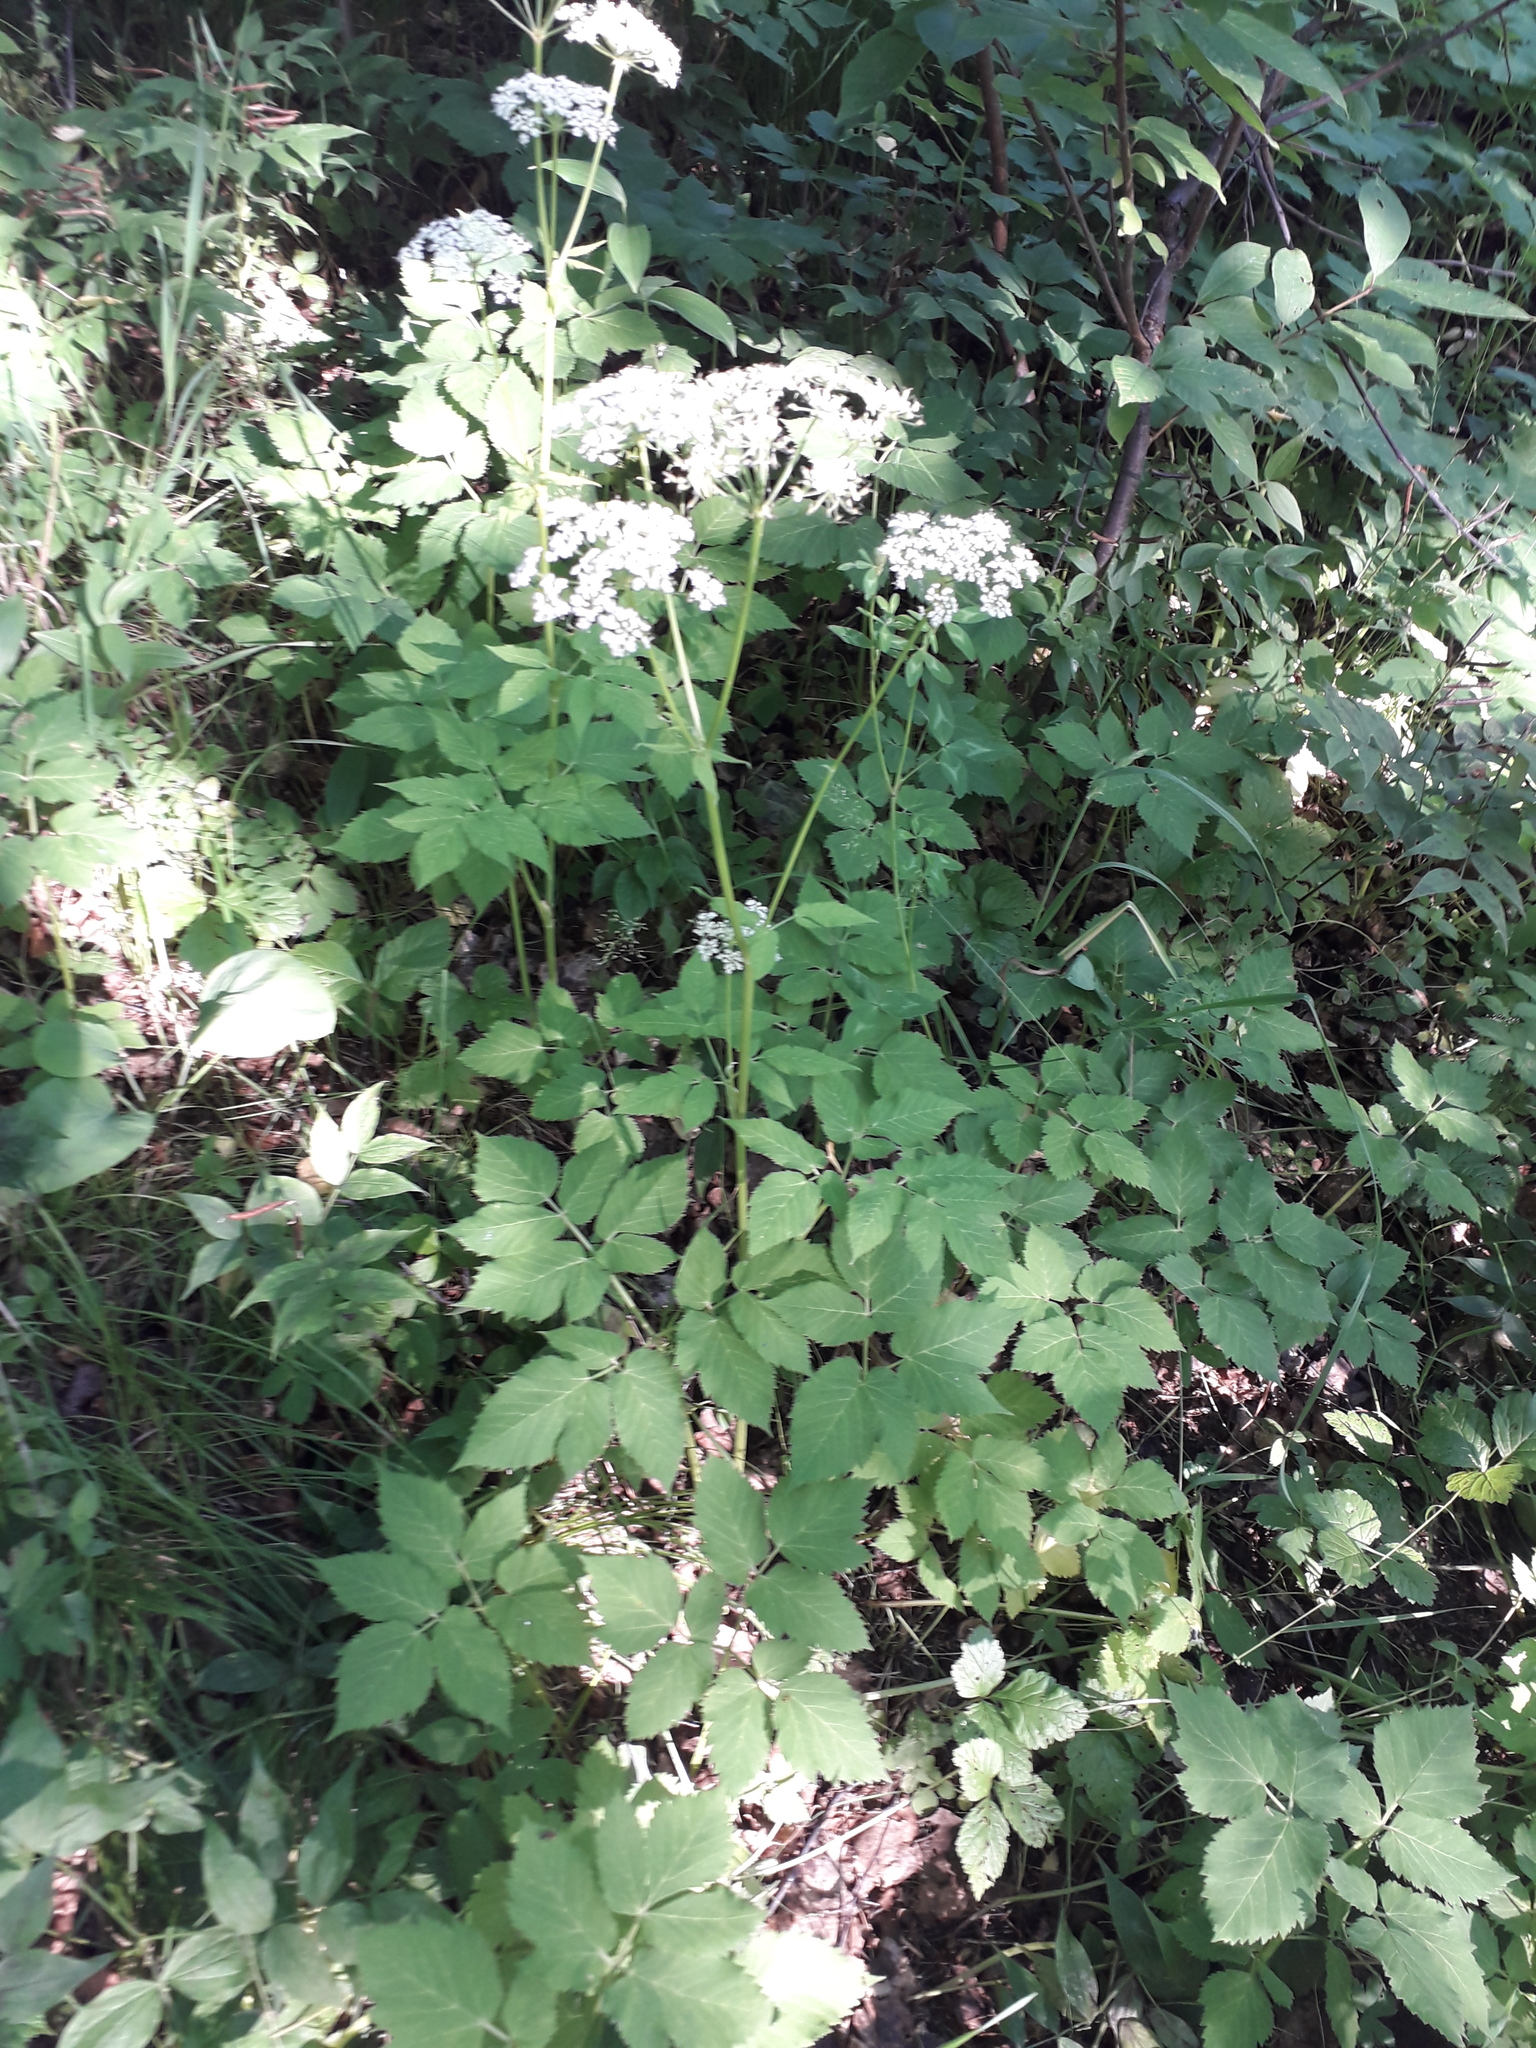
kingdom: Plantae
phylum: Tracheophyta
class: Magnoliopsida
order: Apiales
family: Apiaceae
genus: Aegopodium
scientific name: Aegopodium podagraria
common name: Ground-elder
